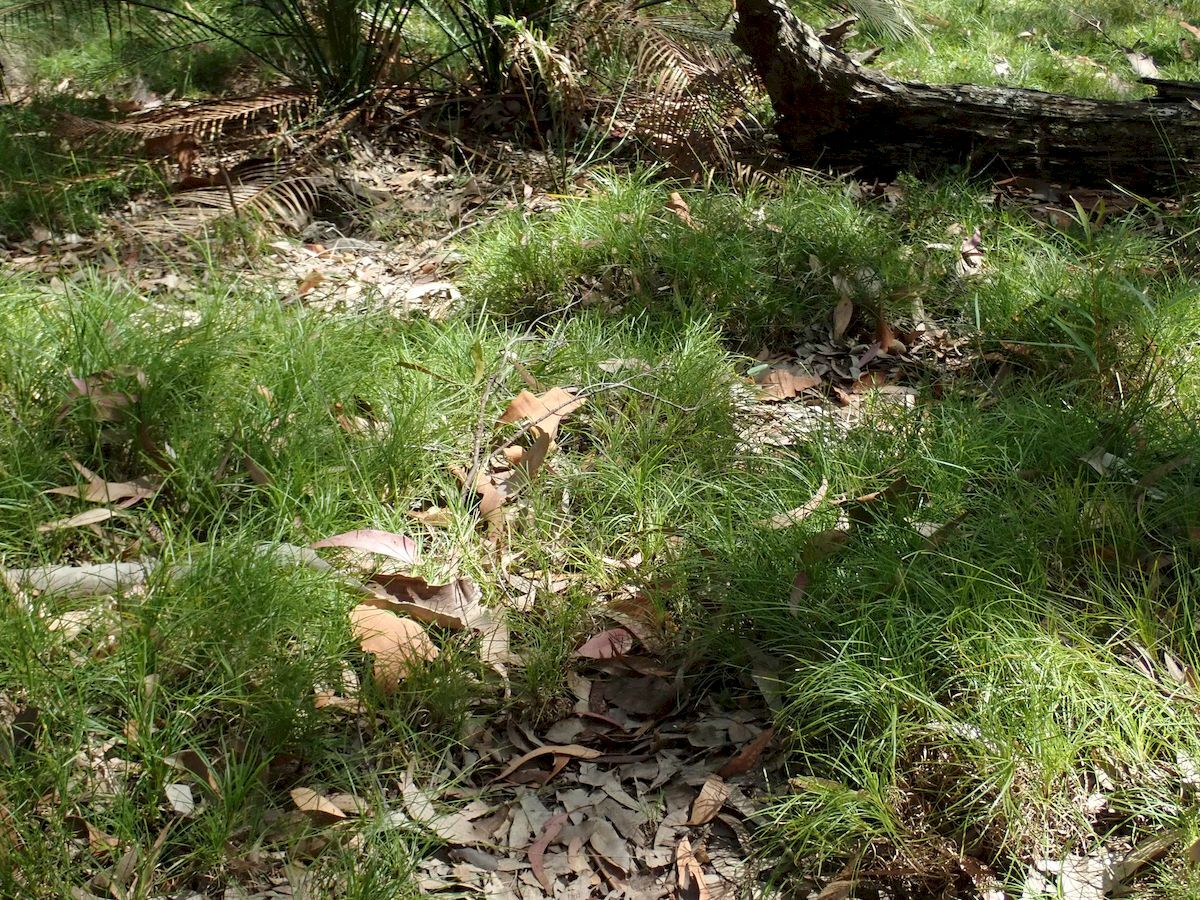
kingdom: Plantae
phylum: Tracheophyta
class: Liliopsida
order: Asparagales
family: Asparagaceae
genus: Lomandra
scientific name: Lomandra confertifolia
